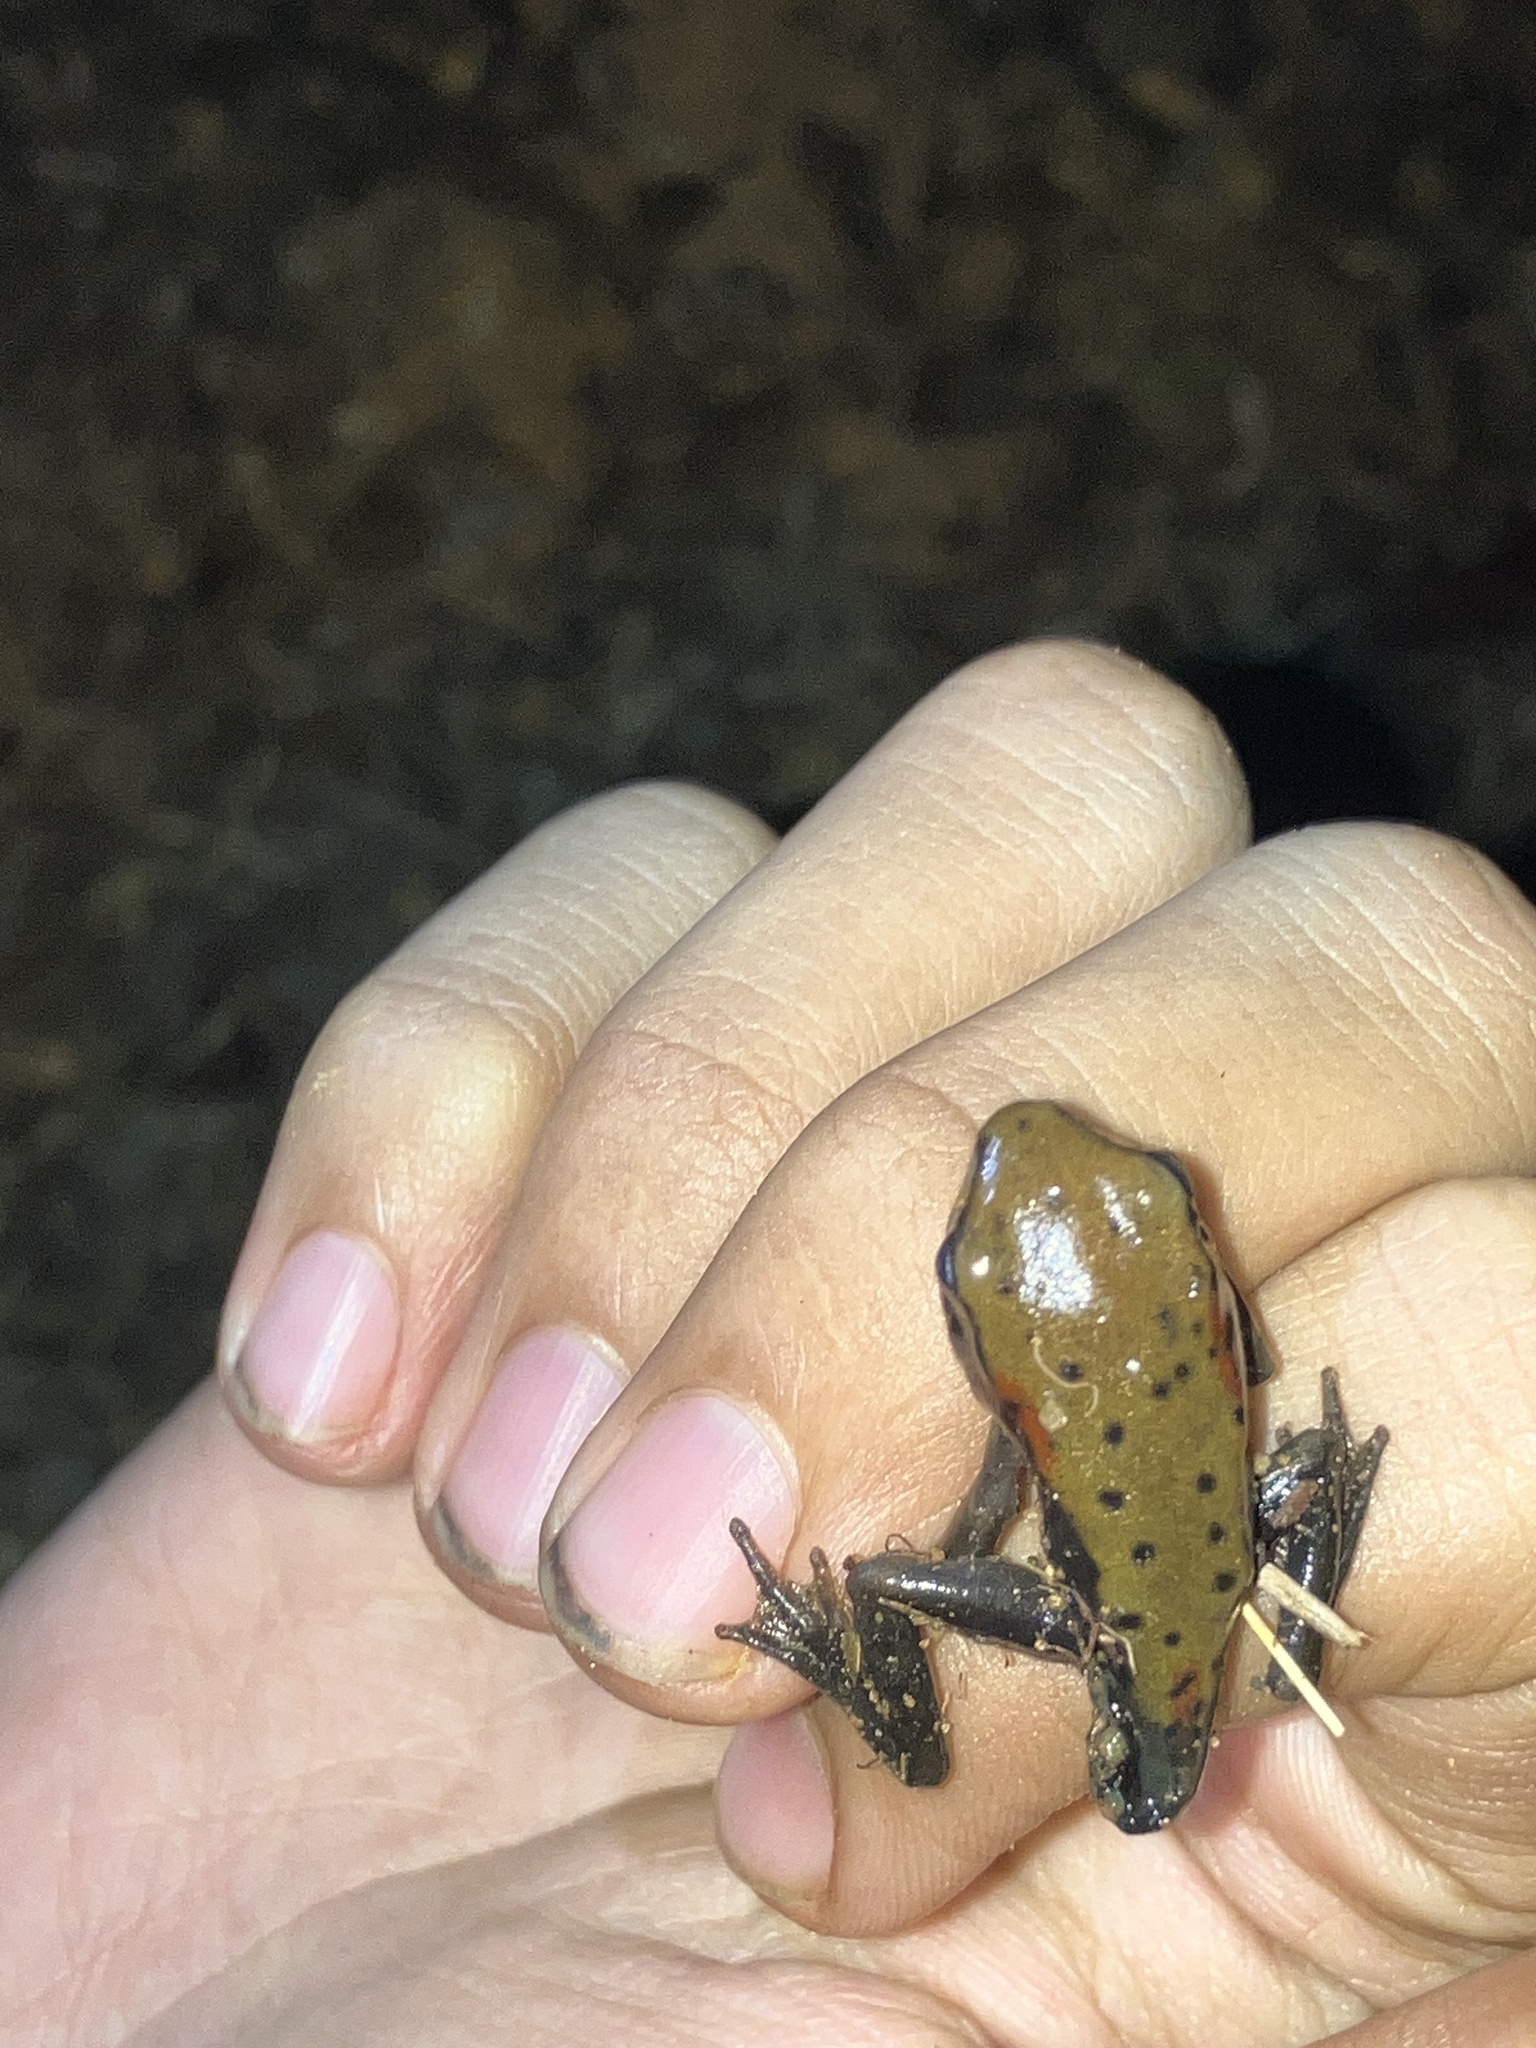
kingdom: Animalia
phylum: Chordata
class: Amphibia
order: Anura
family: Ranidae
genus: Clinotarsus
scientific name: Clinotarsus curtipes
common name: Bicoloured frog
